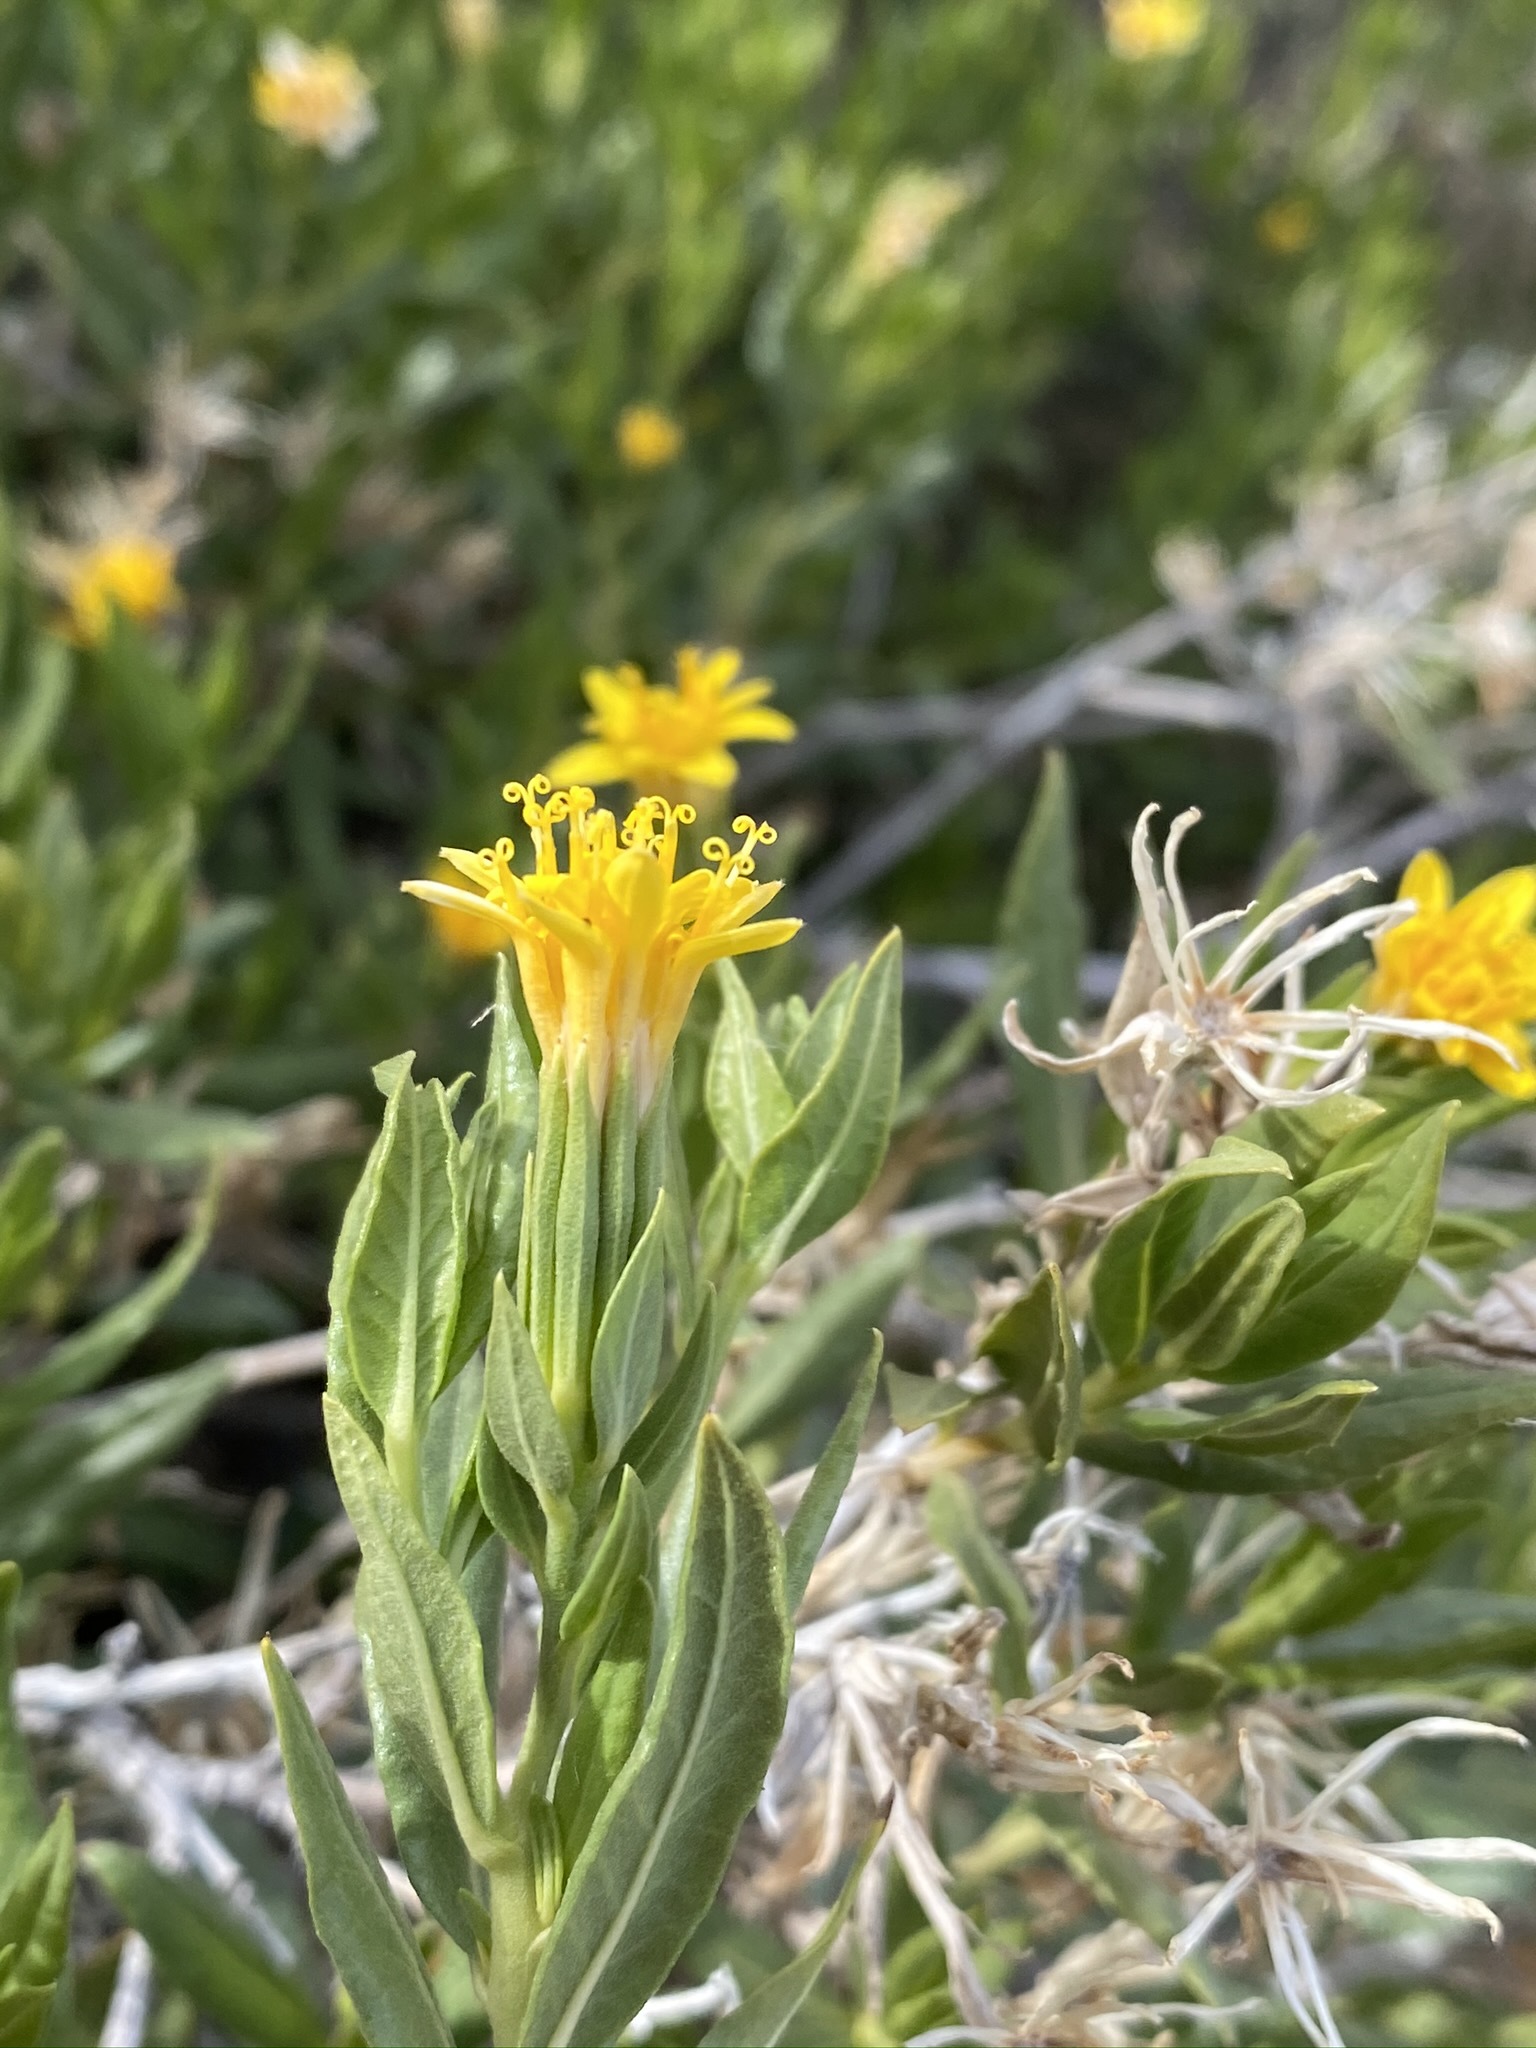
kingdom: Plantae
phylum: Tracheophyta
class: Magnoliopsida
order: Asterales
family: Asteraceae
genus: Trixis
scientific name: Trixis californica
